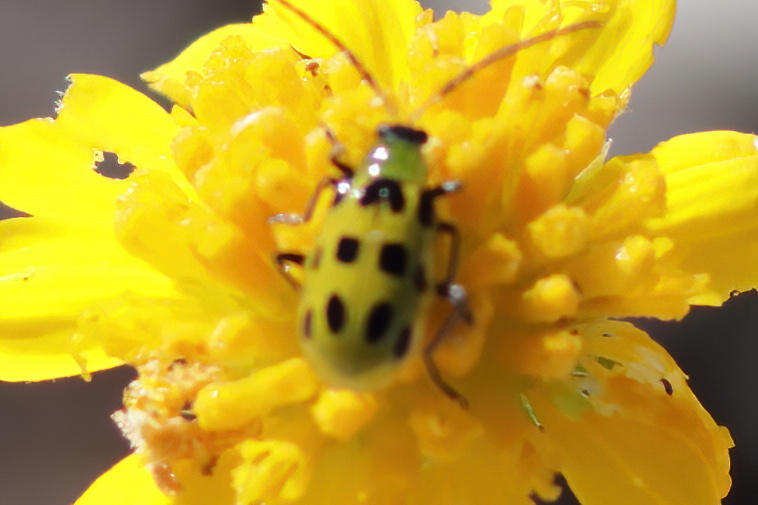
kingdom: Animalia
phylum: Arthropoda
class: Insecta
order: Coleoptera
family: Chrysomelidae
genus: Diabrotica
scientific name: Diabrotica undecimpunctata
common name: Spotted cucumber beetle
